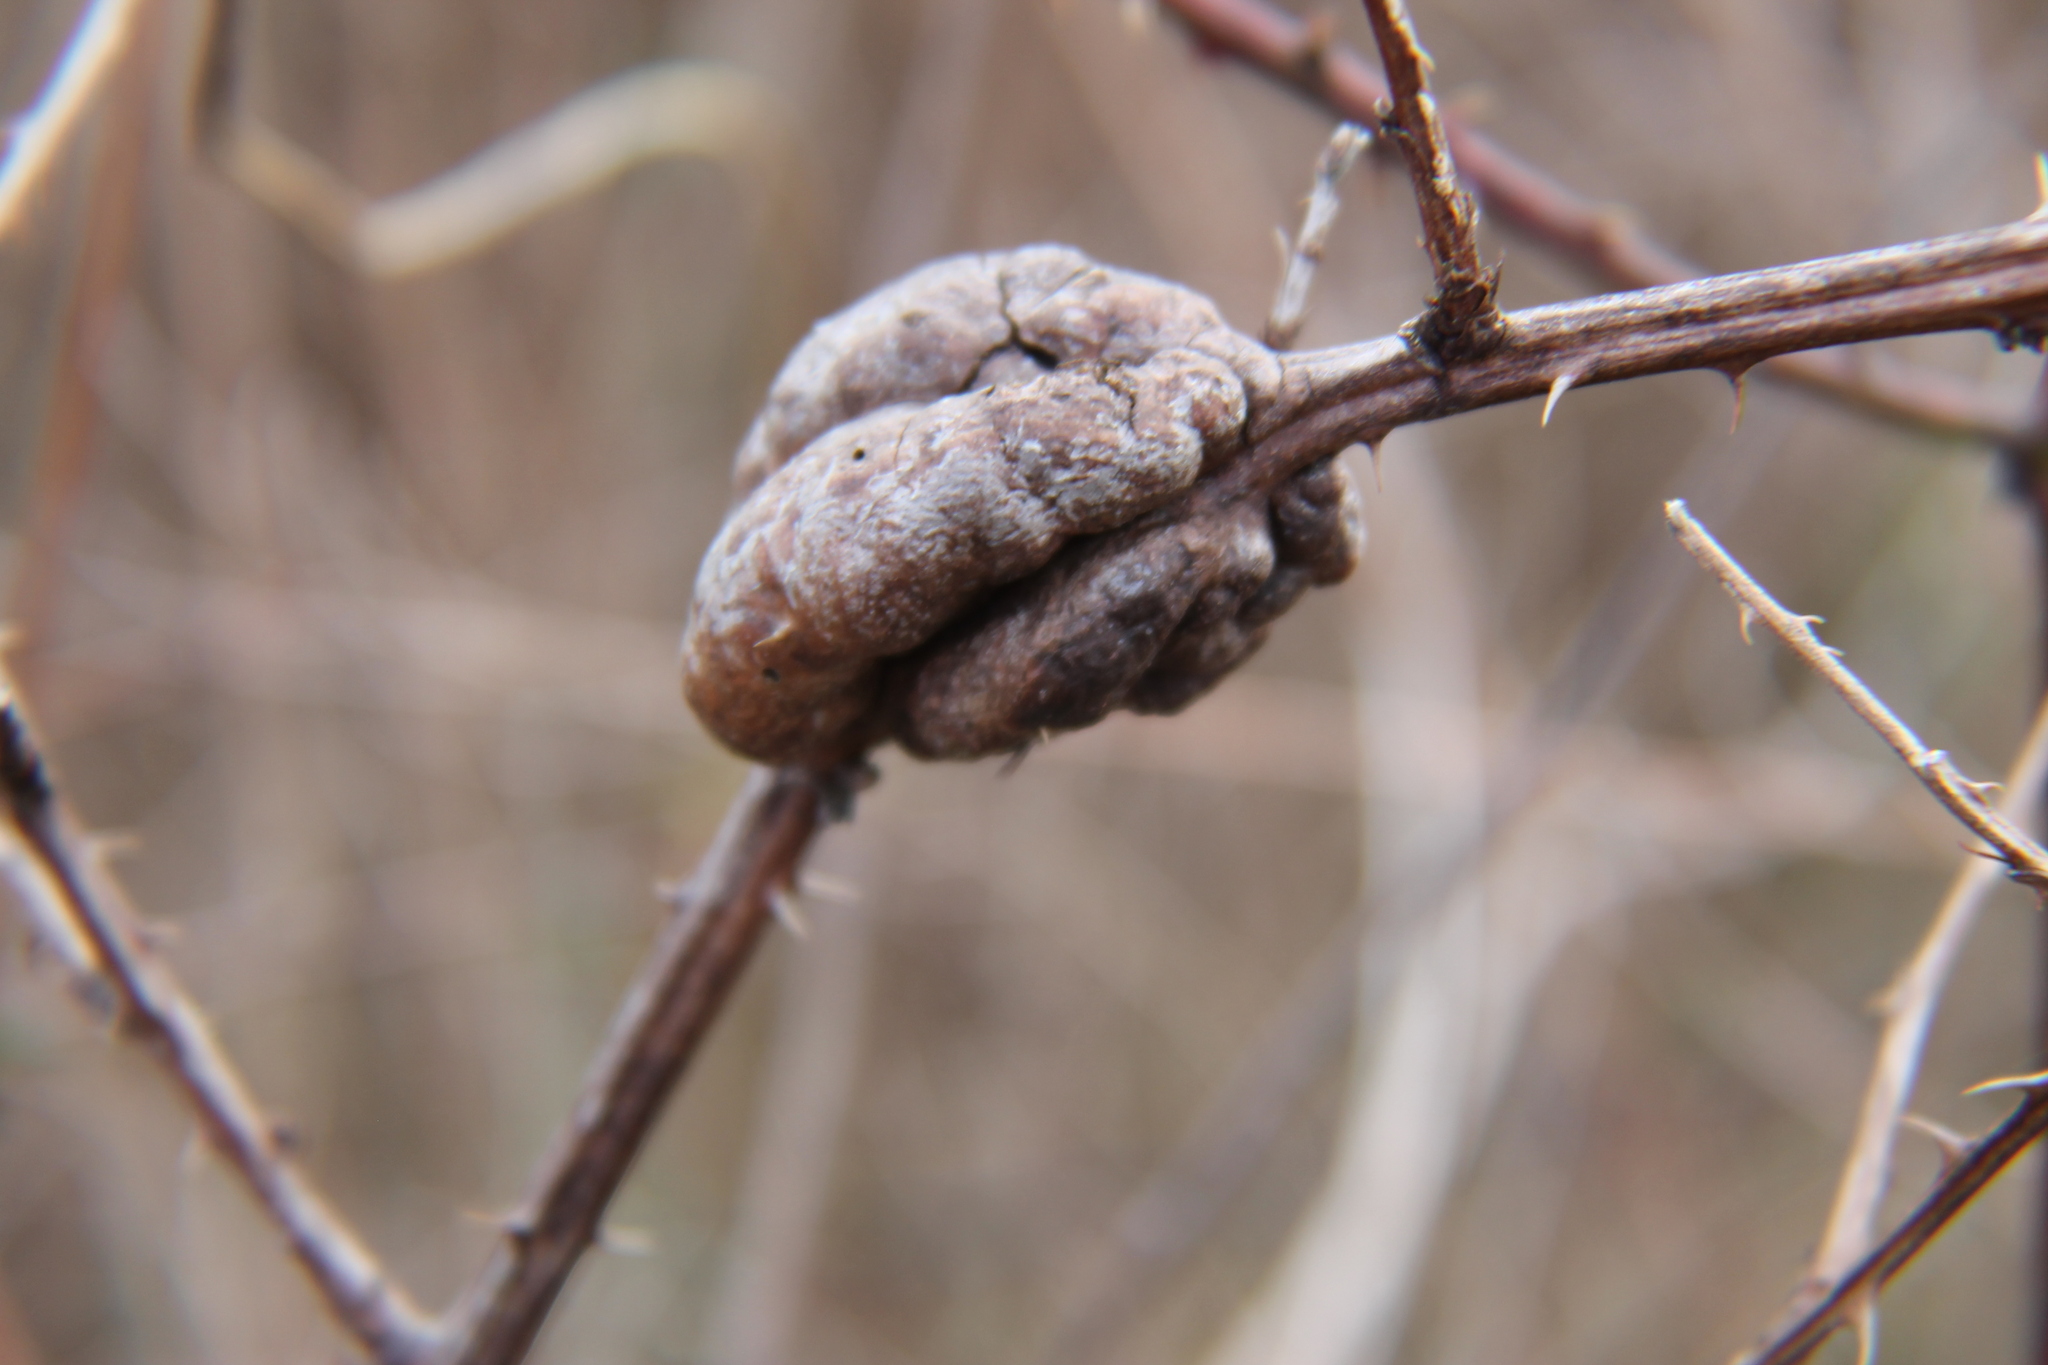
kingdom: Animalia
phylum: Arthropoda
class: Insecta
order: Hymenoptera
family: Cynipidae
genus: Diastrophus
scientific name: Diastrophus
